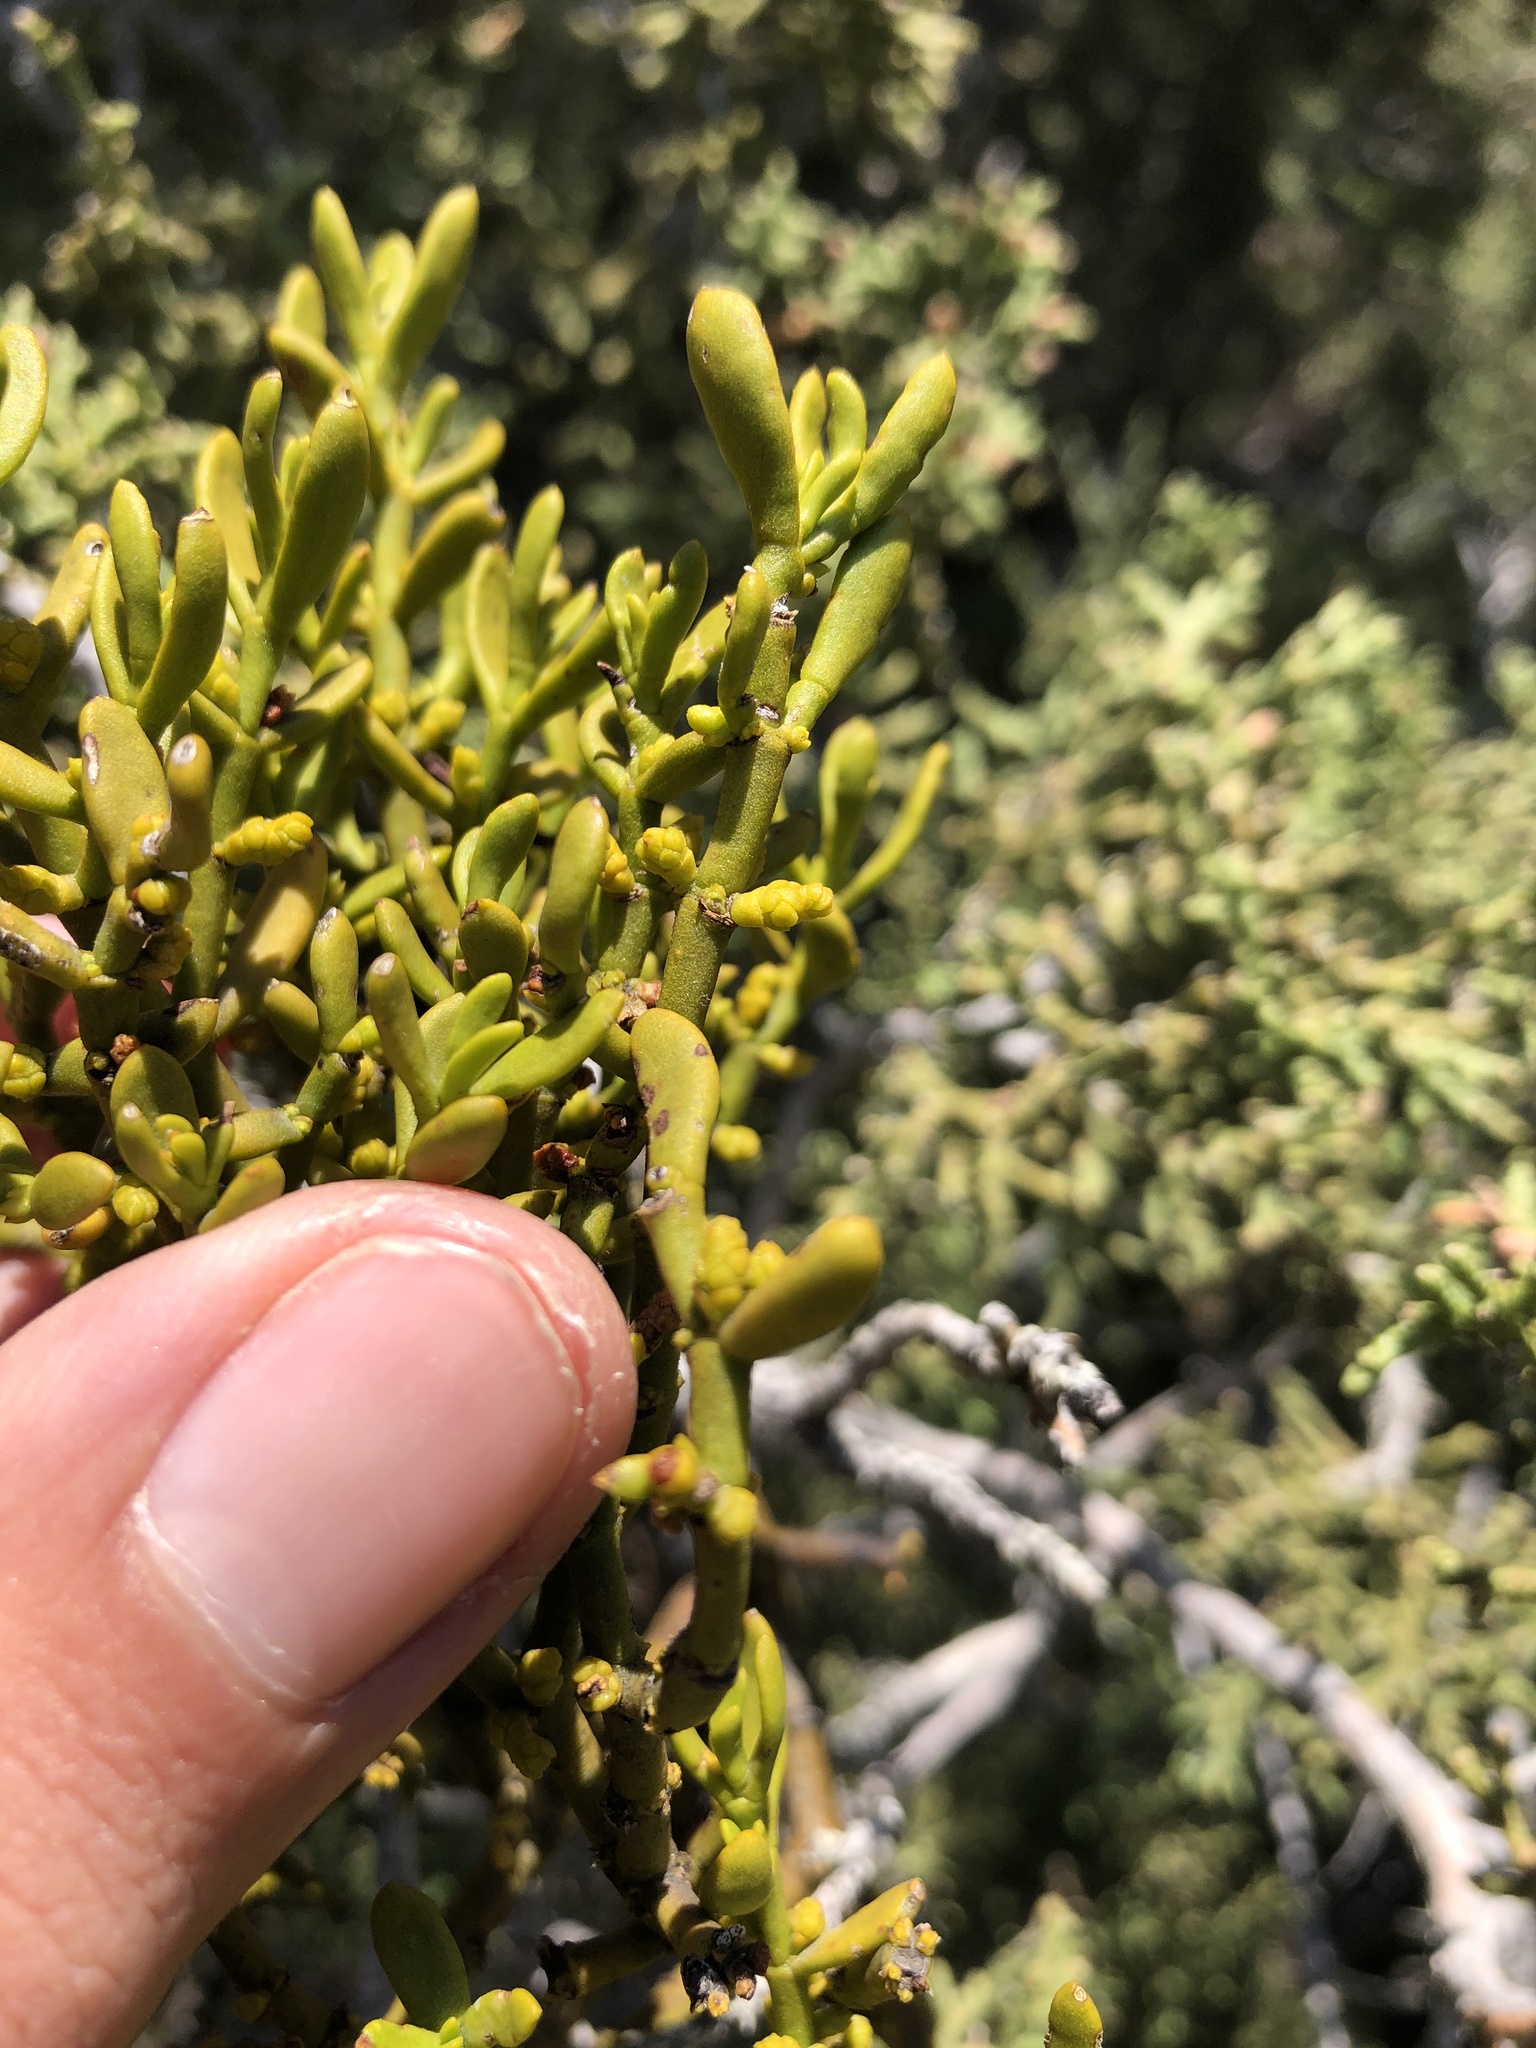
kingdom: Plantae
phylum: Tracheophyta
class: Magnoliopsida
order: Santalales
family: Viscaceae
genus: Phoradendron
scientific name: Phoradendron bolleanum
